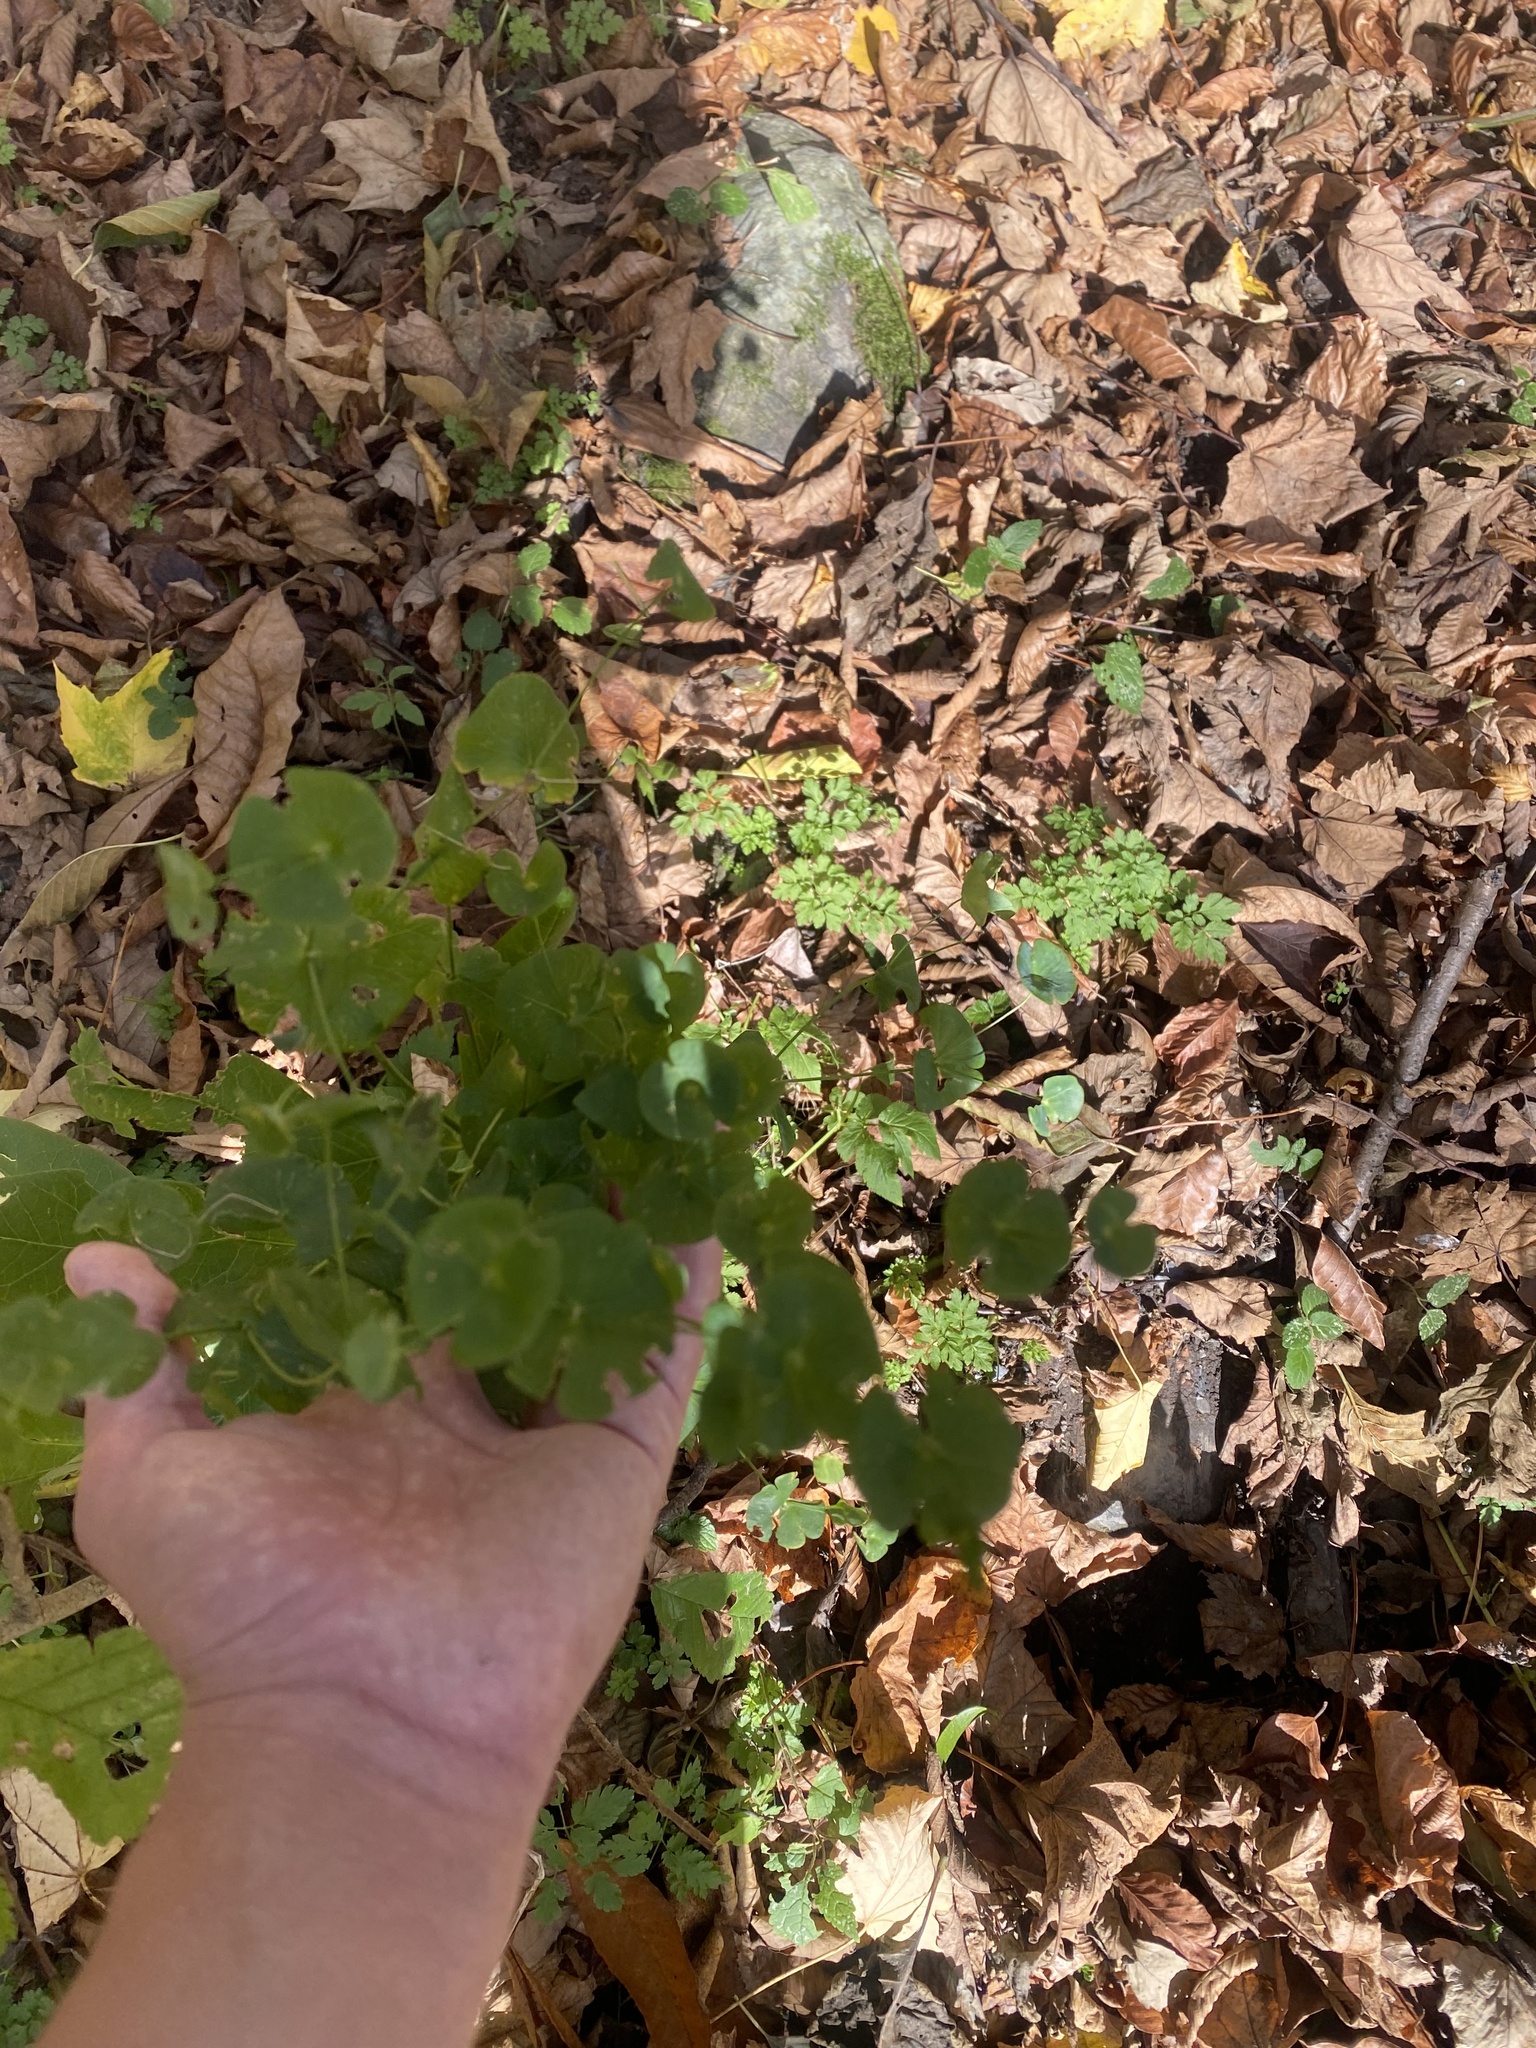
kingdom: Plantae
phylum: Tracheophyta
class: Magnoliopsida
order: Malpighiales
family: Euphorbiaceae
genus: Euphorbia
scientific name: Euphorbia macroceras
